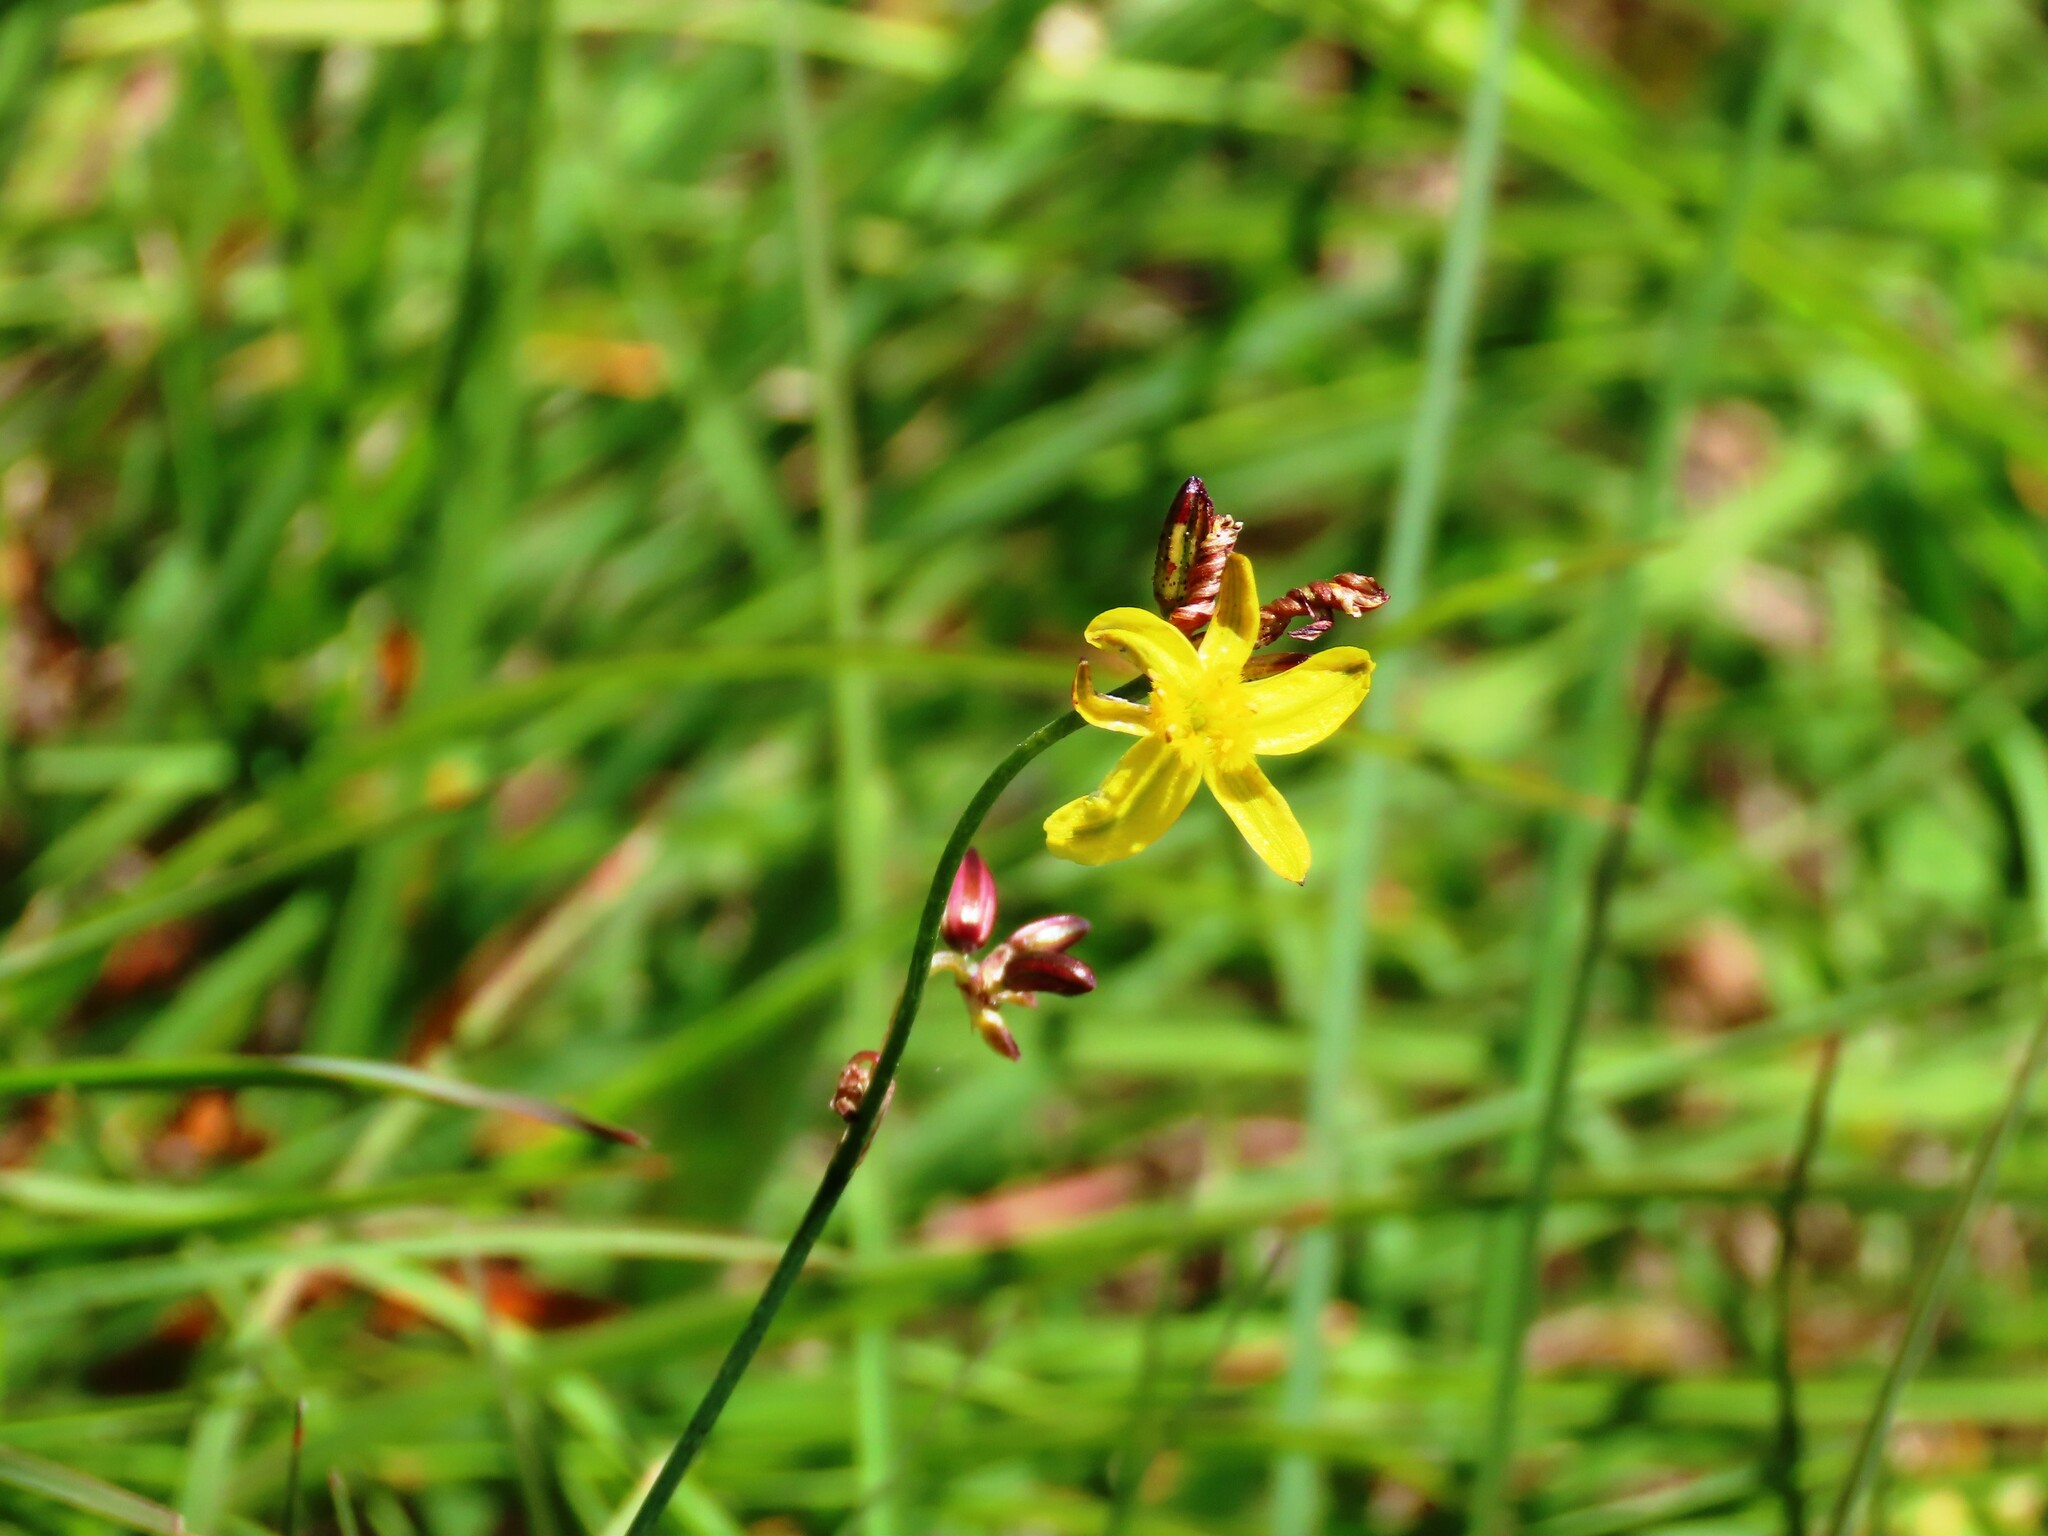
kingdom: Plantae
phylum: Tracheophyta
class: Liliopsida
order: Asparagales
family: Asphodelaceae
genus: Tricoryne
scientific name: Tricoryne elatior
